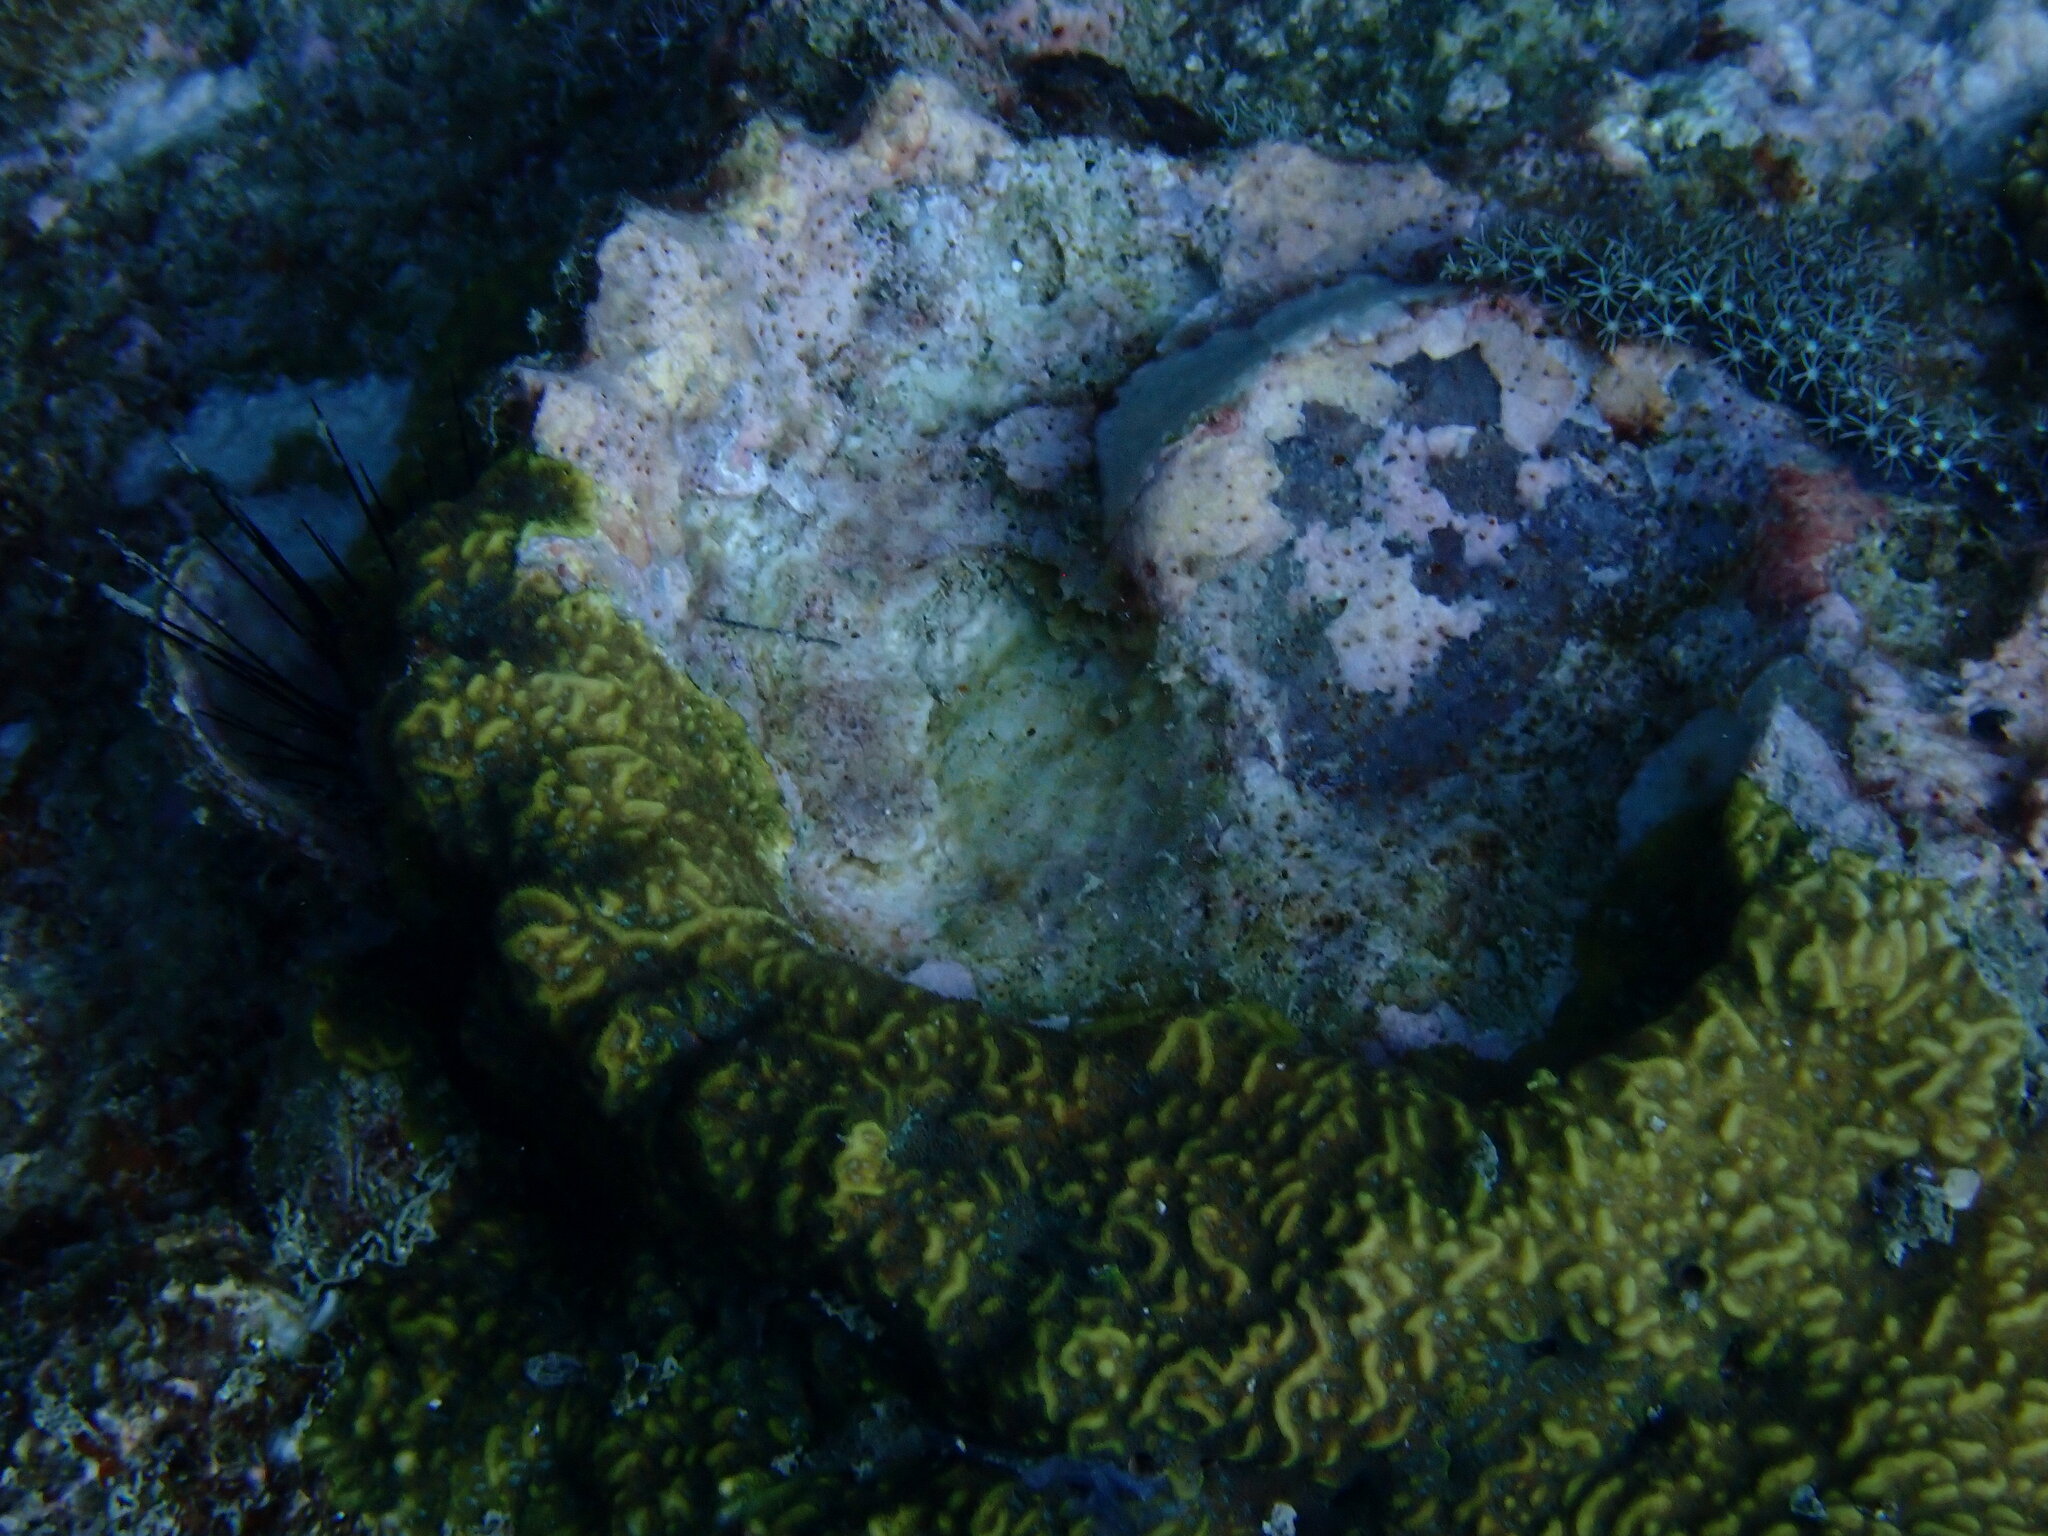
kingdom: Animalia
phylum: Cnidaria
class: Anthozoa
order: Scleractinia
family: Agariciidae
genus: Pavona
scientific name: Pavona varians
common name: Leaf coral
